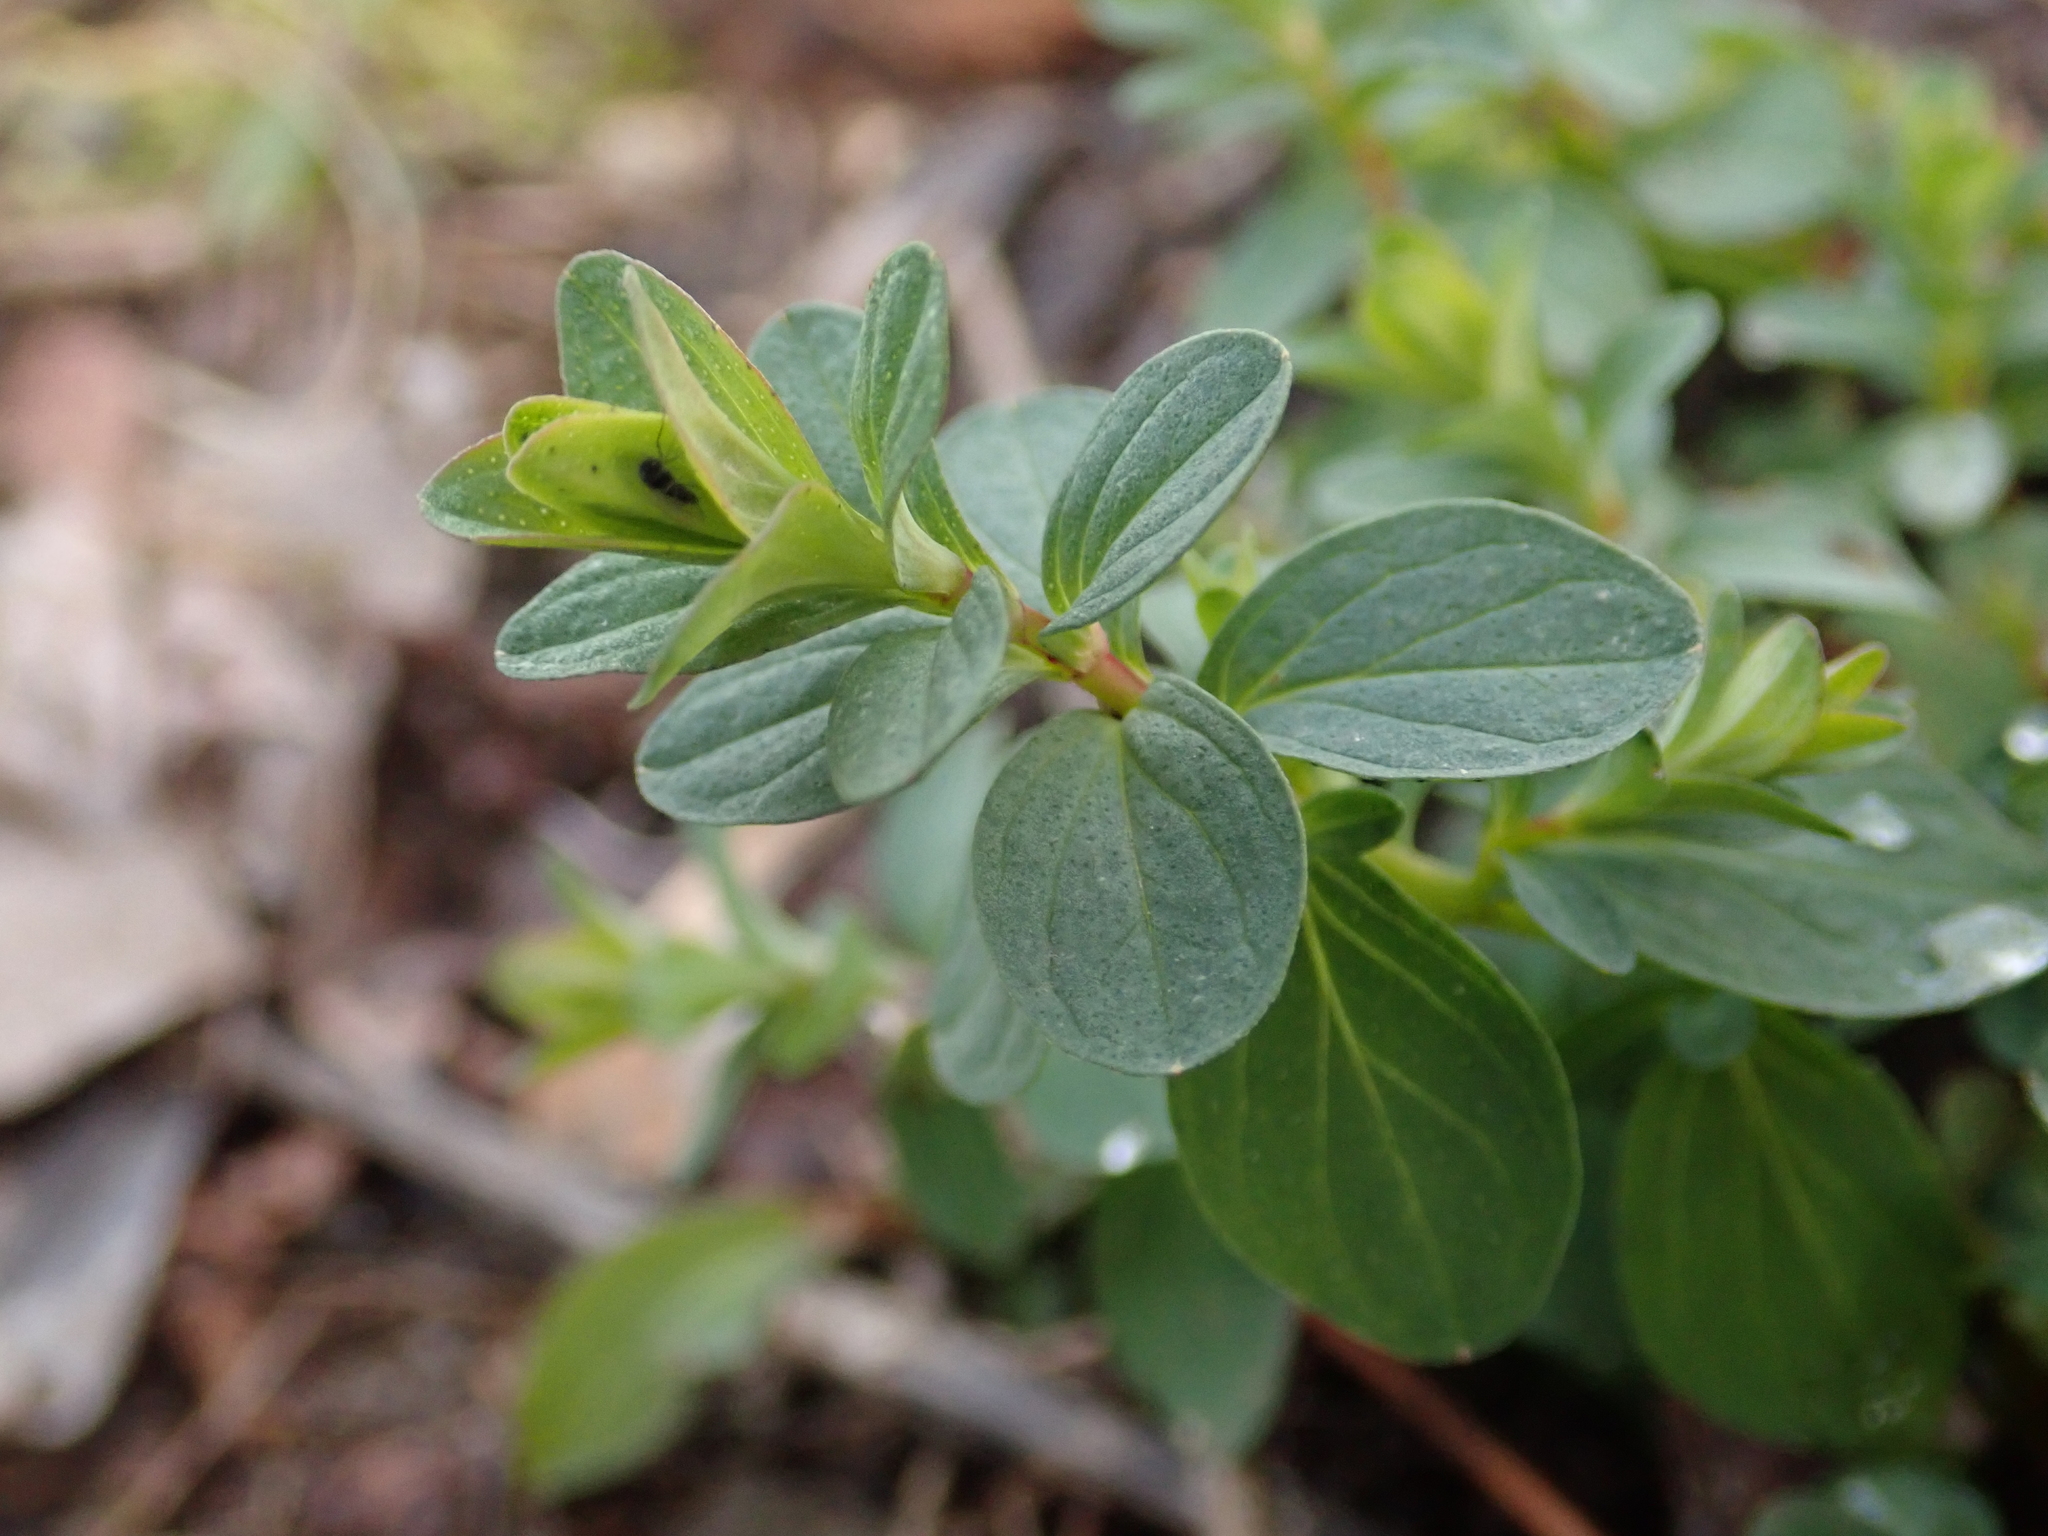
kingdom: Plantae
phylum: Tracheophyta
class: Magnoliopsida
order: Malpighiales
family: Hypericaceae
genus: Hypericum
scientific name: Hypericum perforatum
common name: Common st. johnswort
